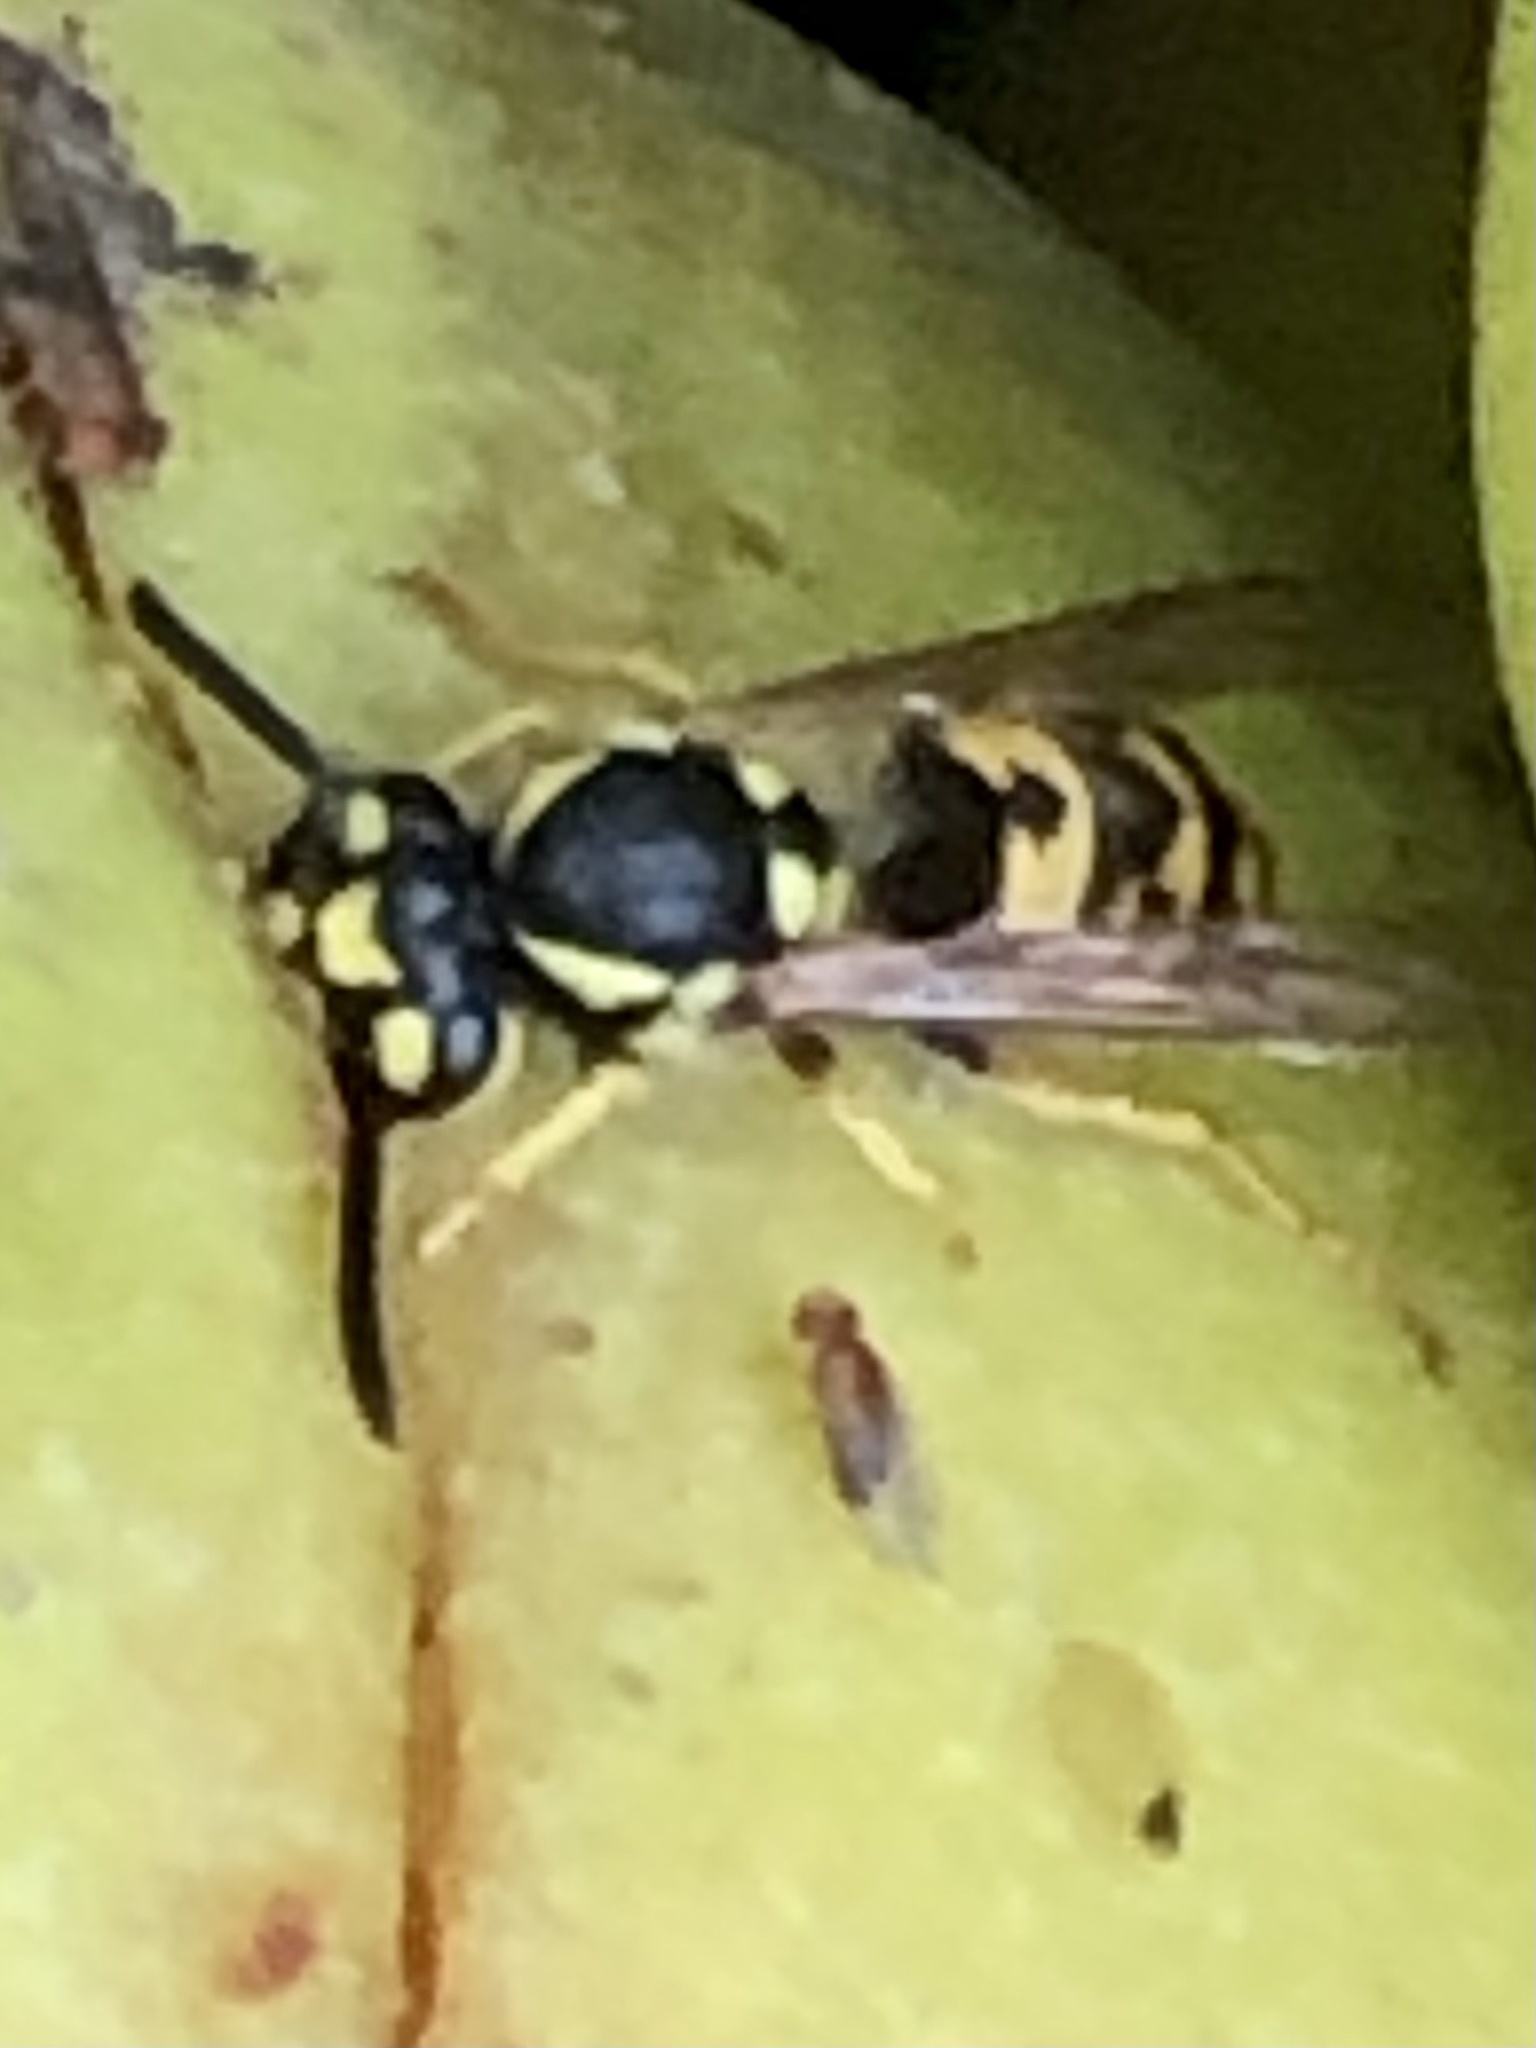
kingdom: Animalia
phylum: Arthropoda
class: Insecta
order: Hymenoptera
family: Vespidae
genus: Vespula
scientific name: Vespula germanica
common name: German wasp
